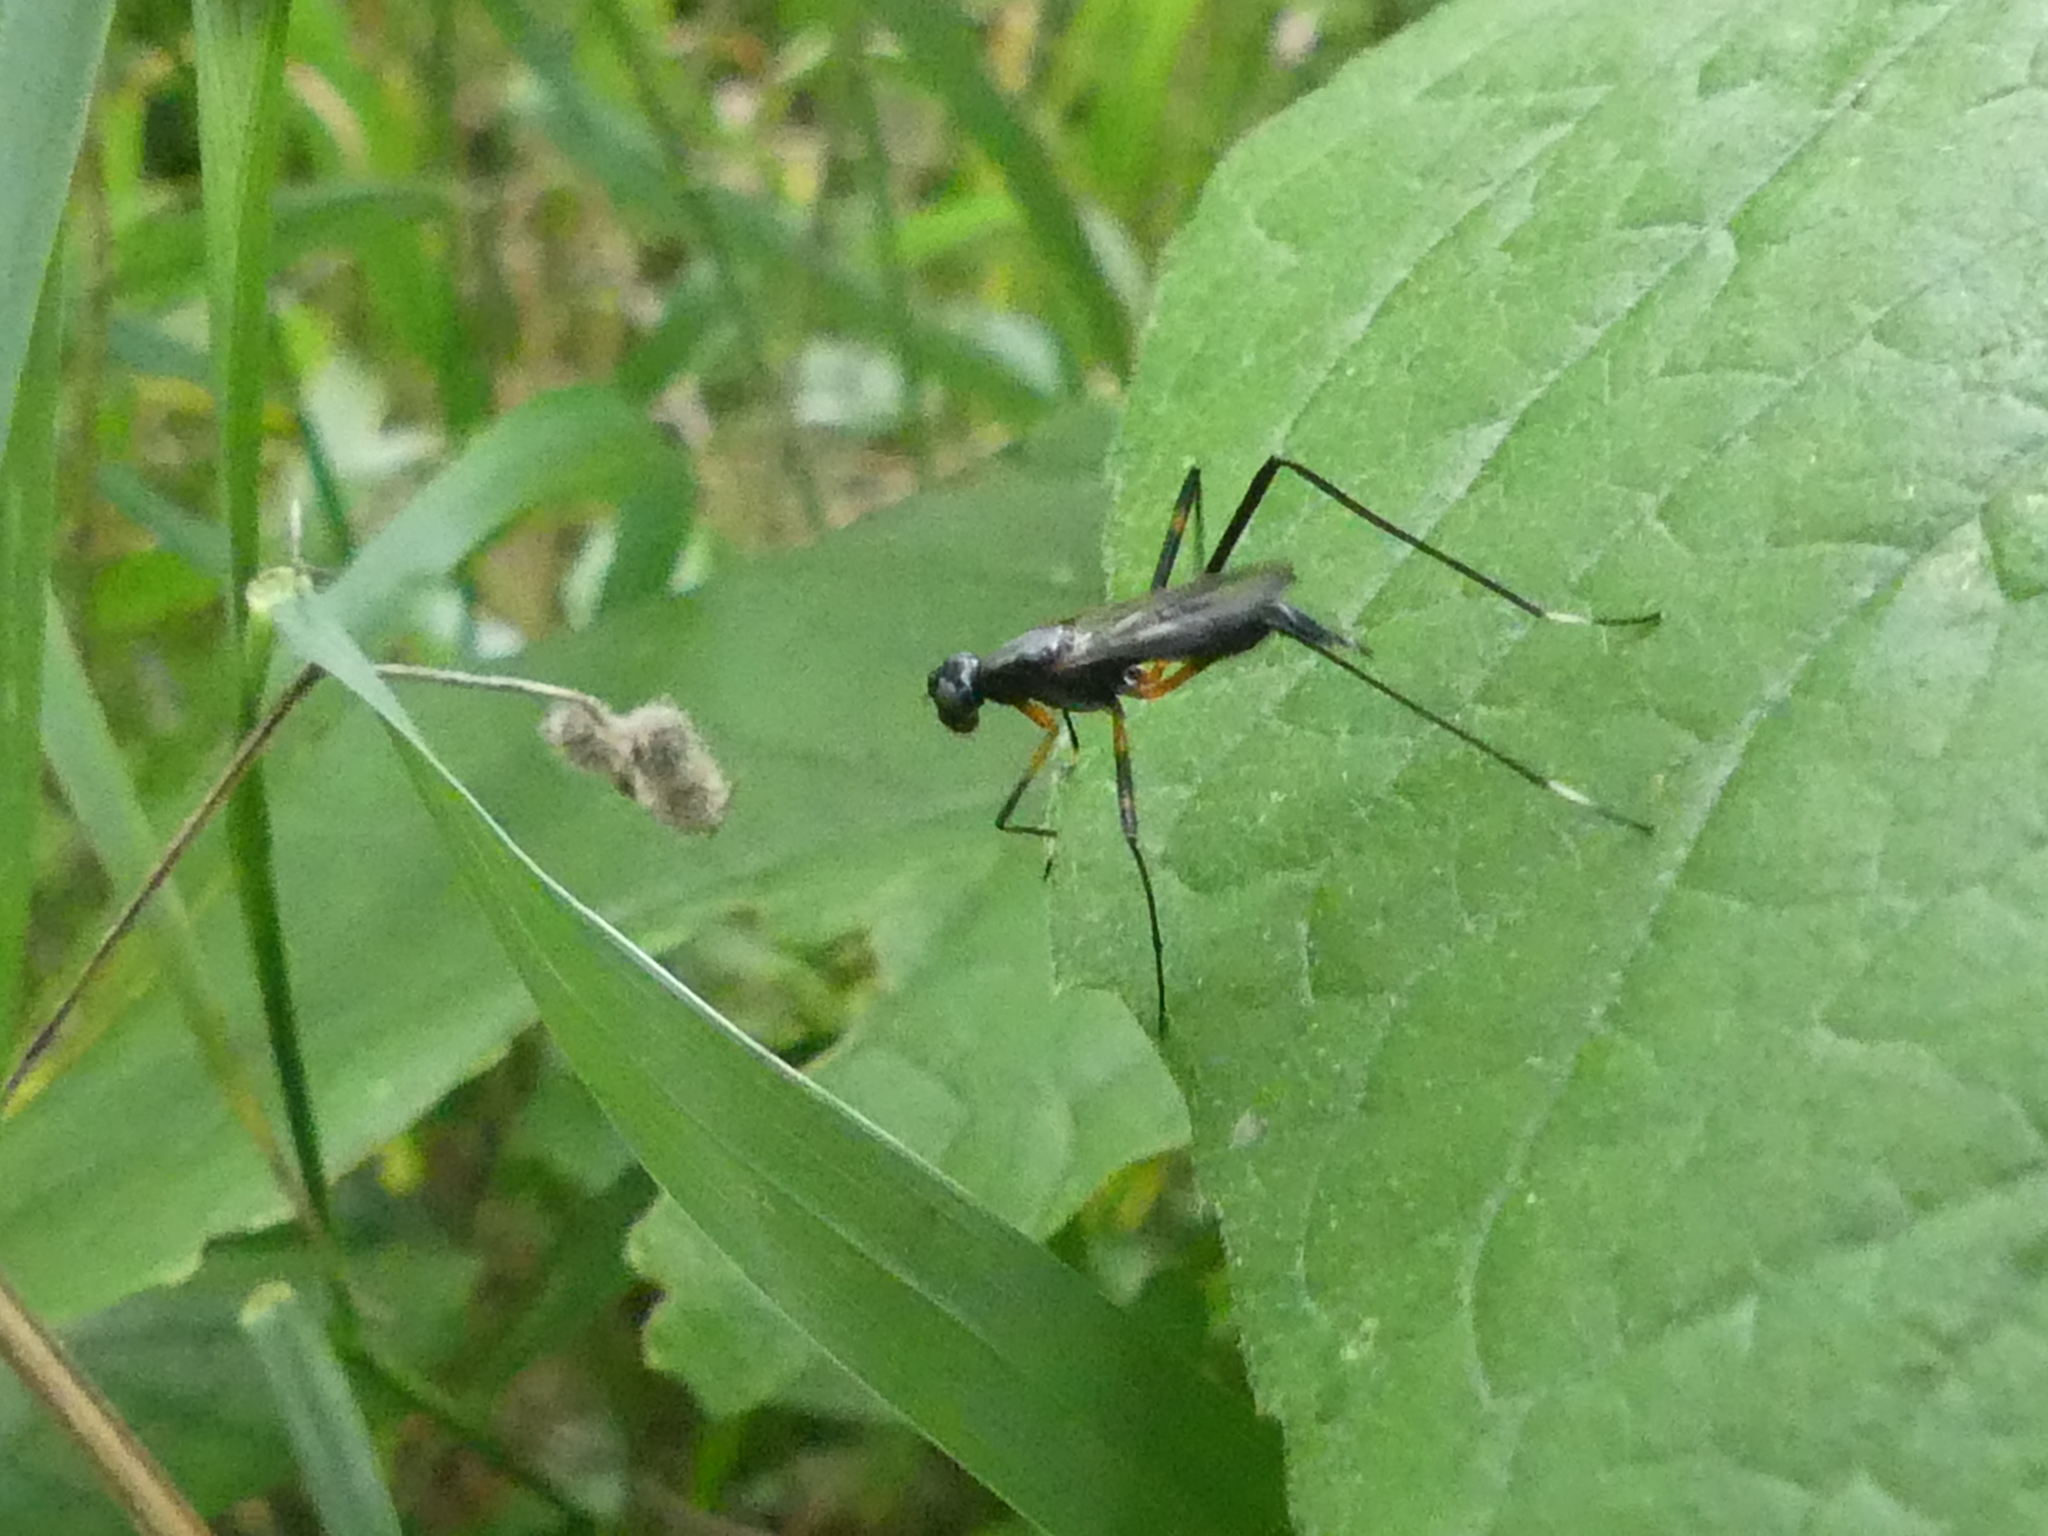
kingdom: Animalia
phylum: Arthropoda
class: Insecta
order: Diptera
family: Micropezidae
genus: Calobatina
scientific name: Calobatina geometra
